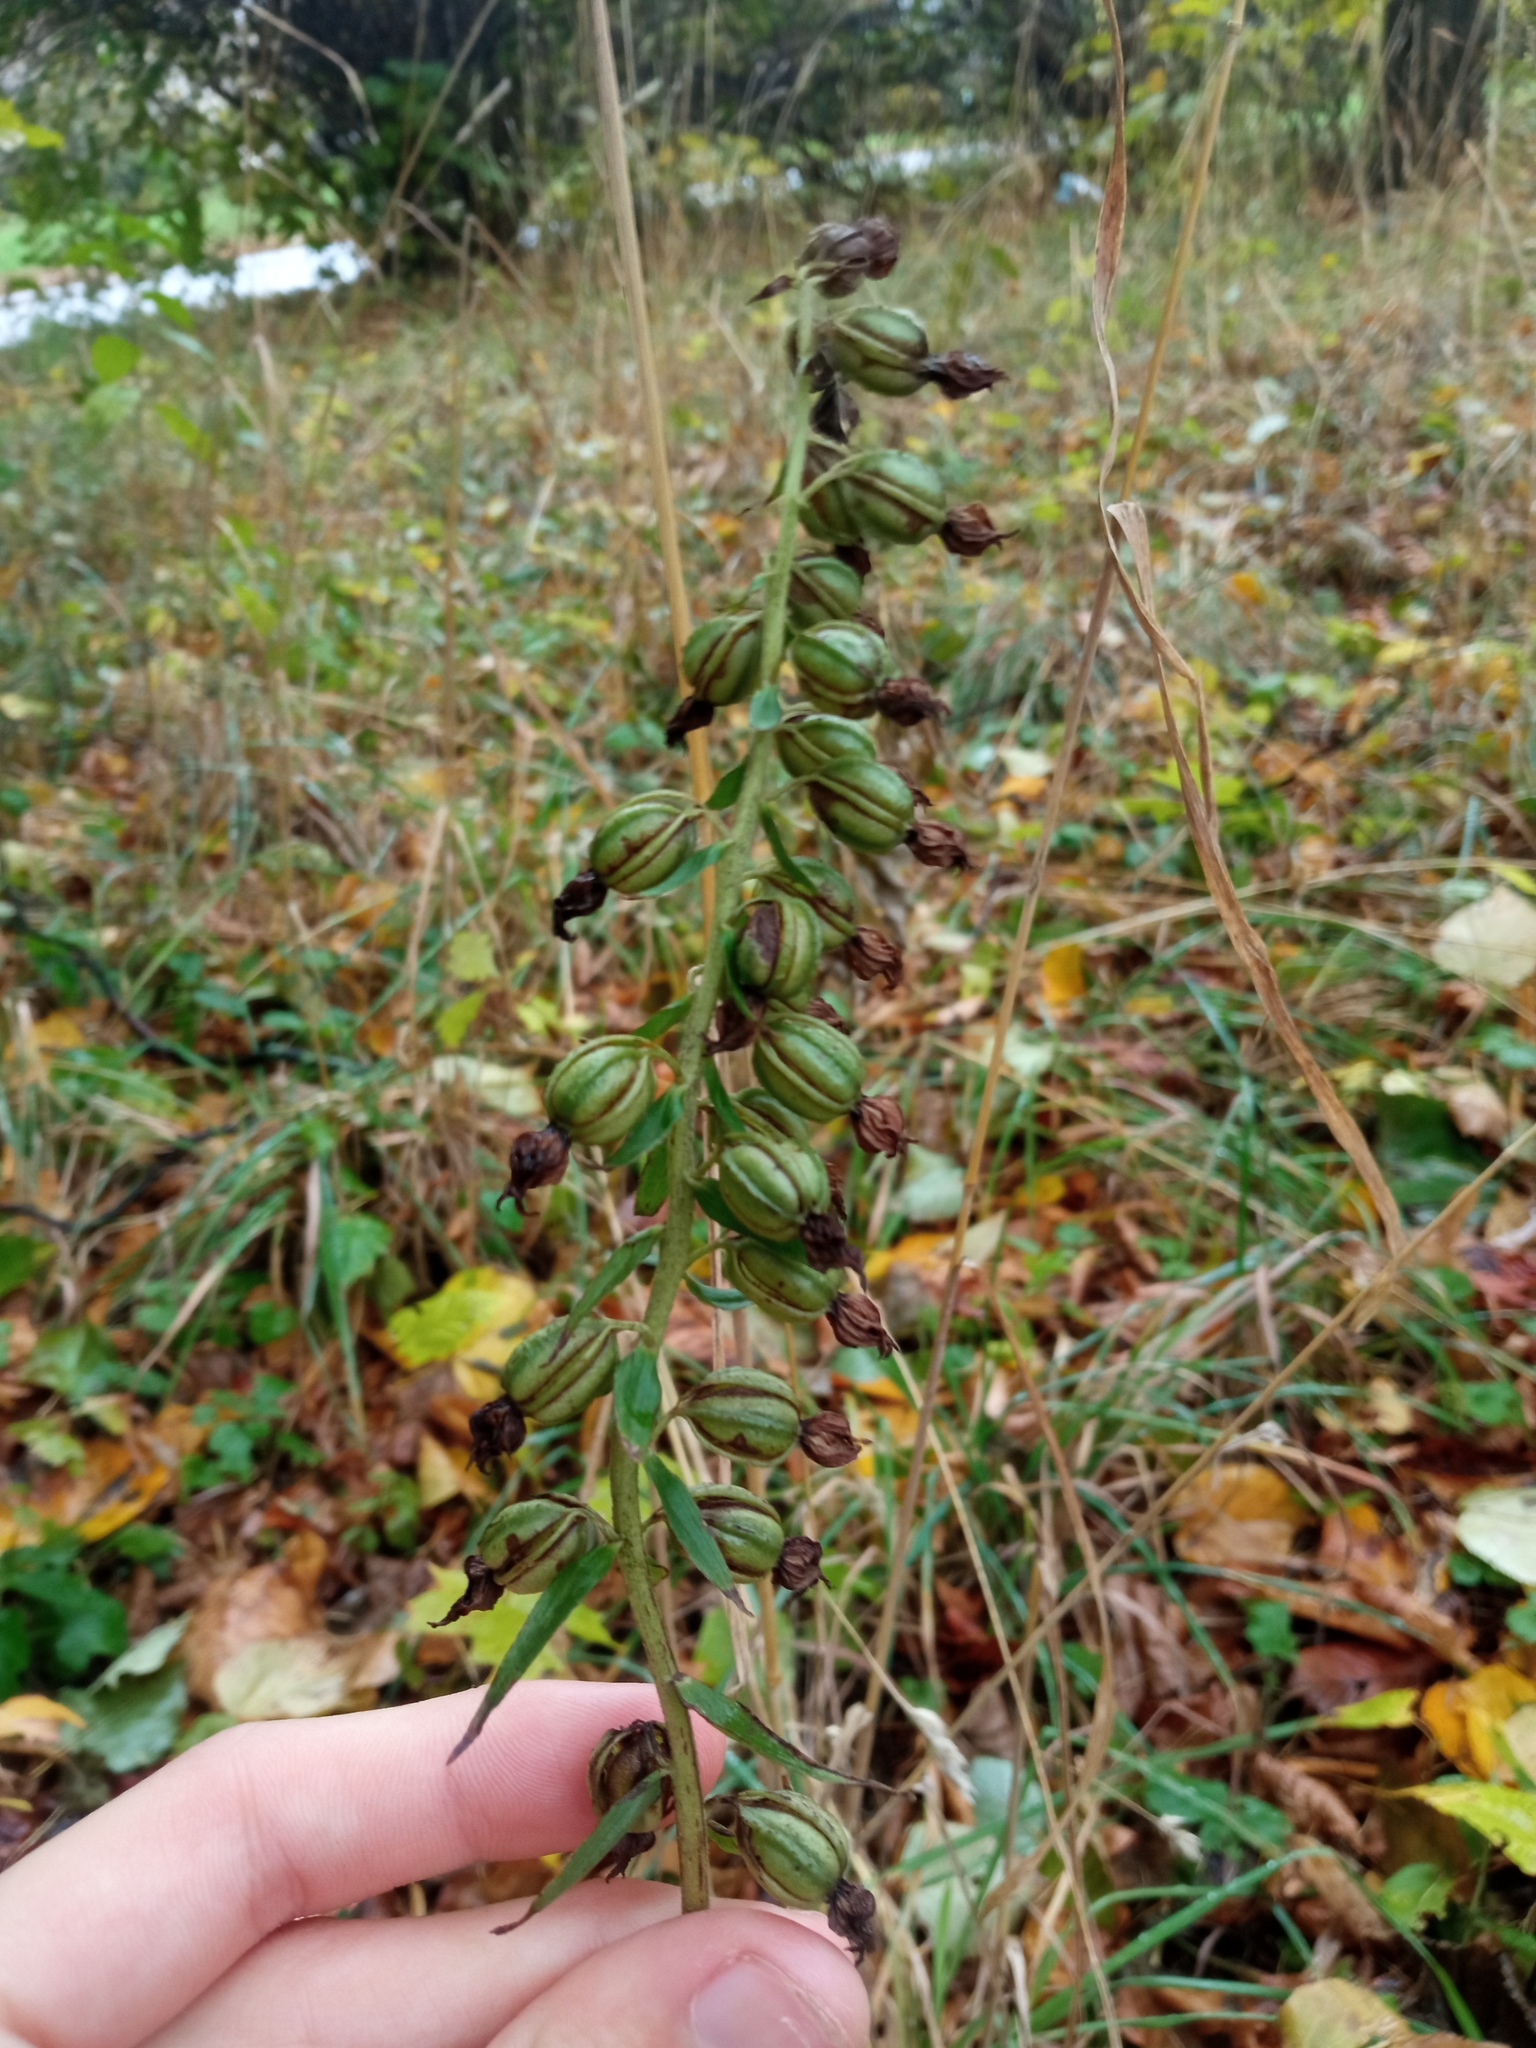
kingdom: Plantae
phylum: Tracheophyta
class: Liliopsida
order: Asparagales
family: Orchidaceae
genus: Epipactis
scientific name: Epipactis helleborine
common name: Broad-leaved helleborine
